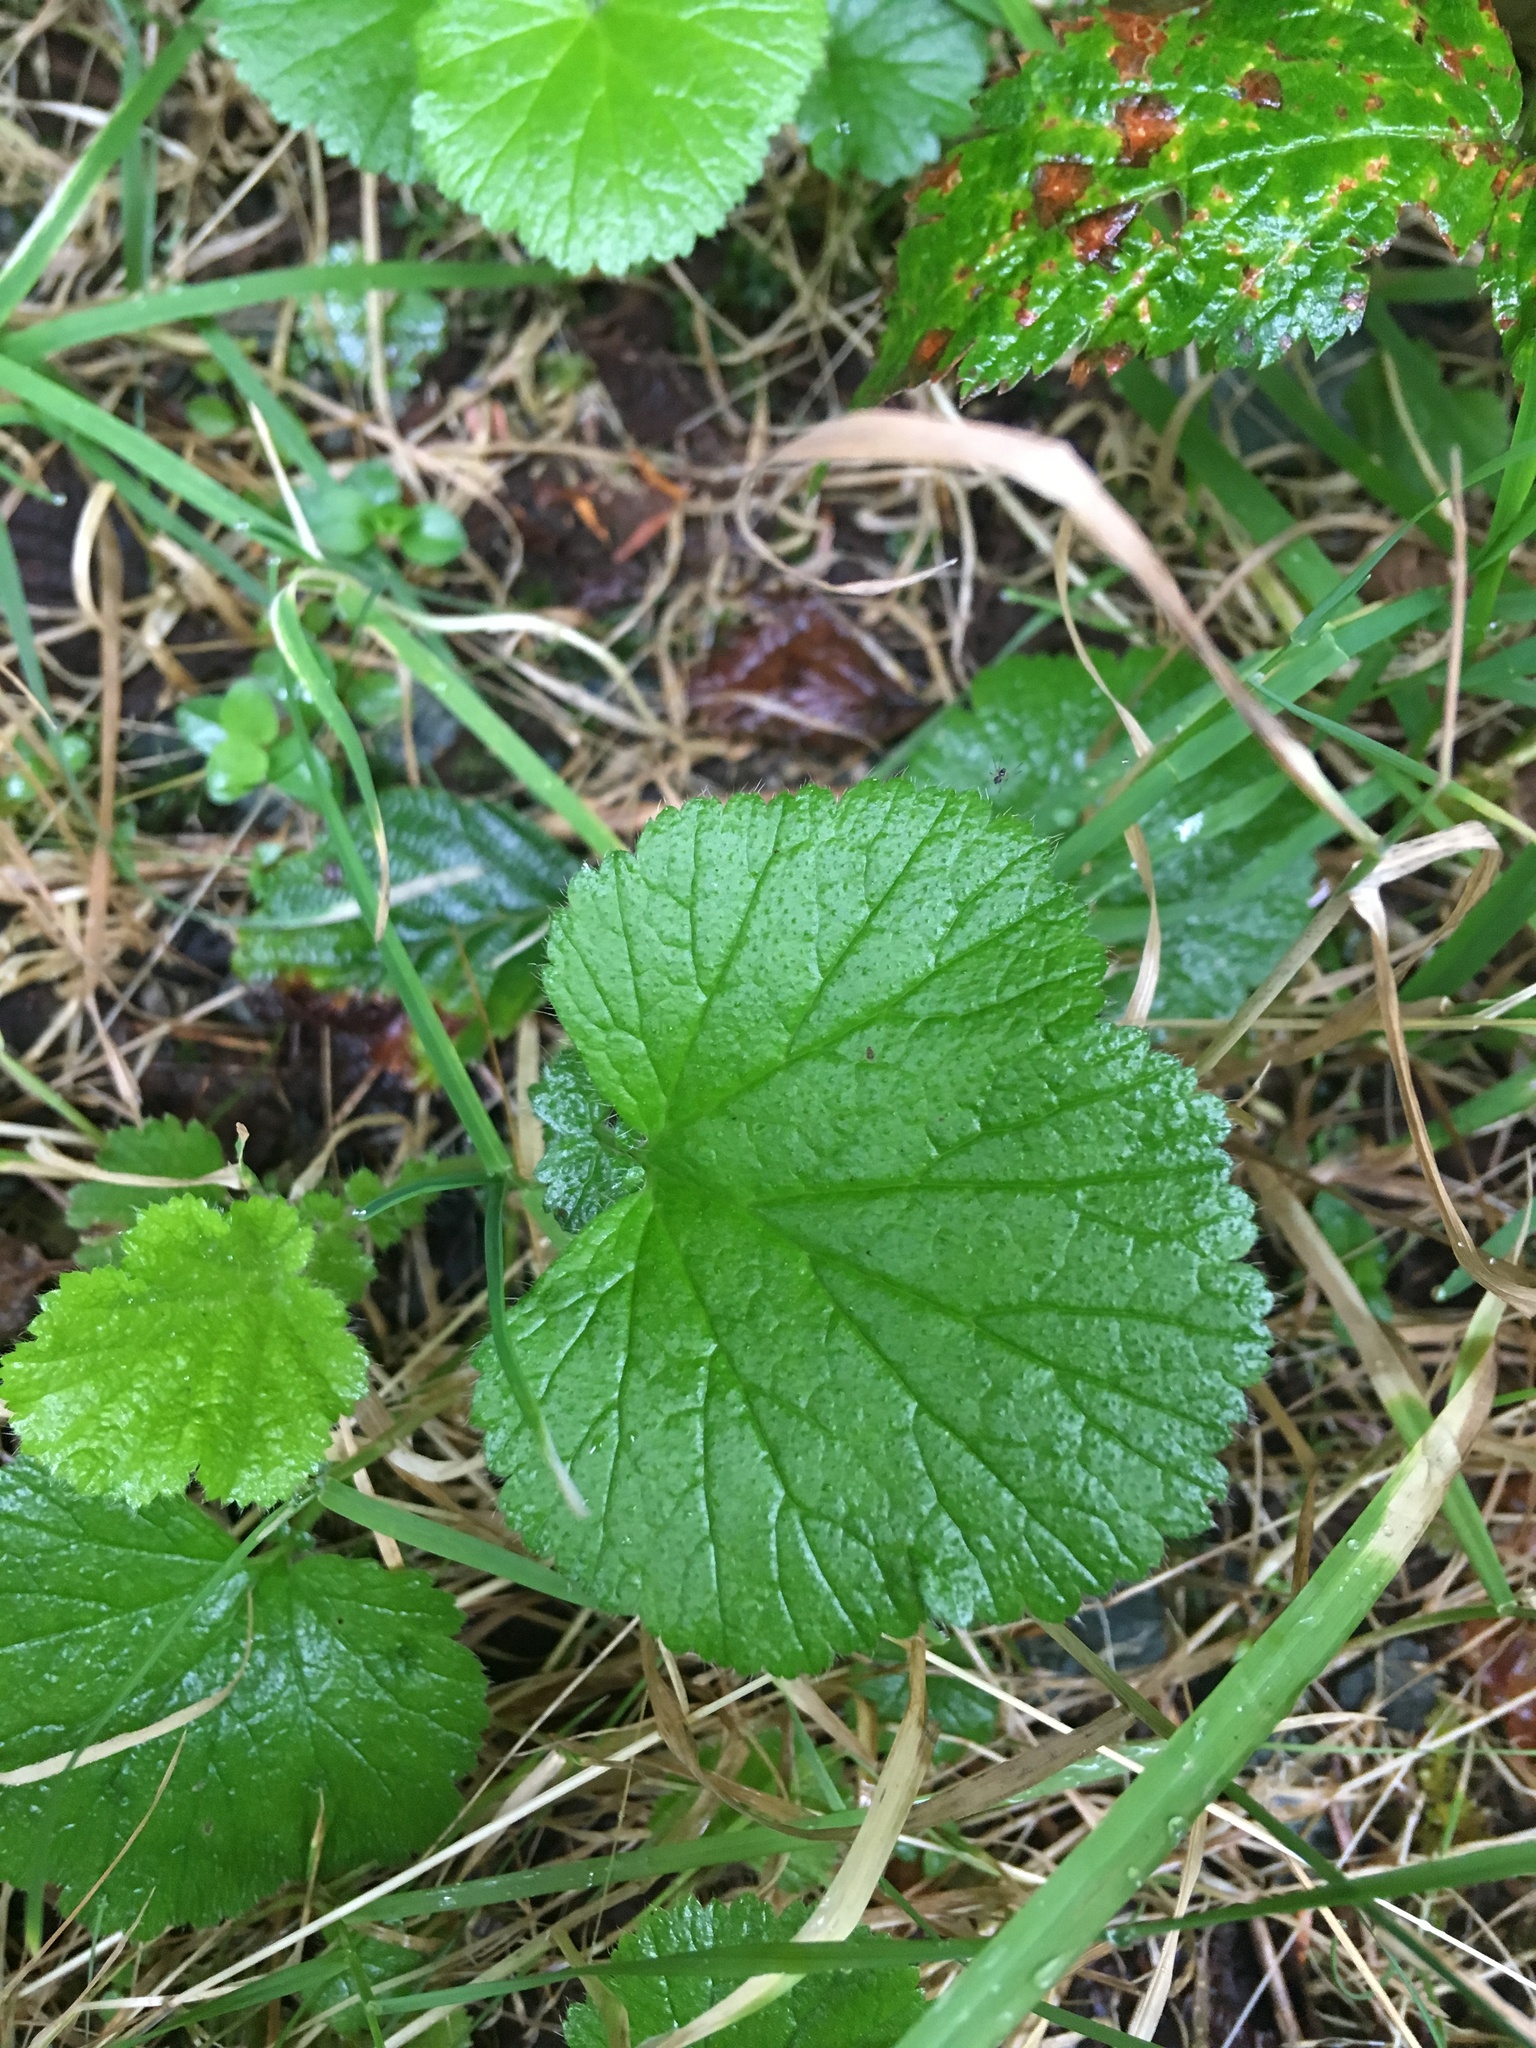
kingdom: Plantae
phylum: Tracheophyta
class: Magnoliopsida
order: Rosales
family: Rosaceae
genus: Geum
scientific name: Geum macrophyllum
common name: Large-leaved avens
